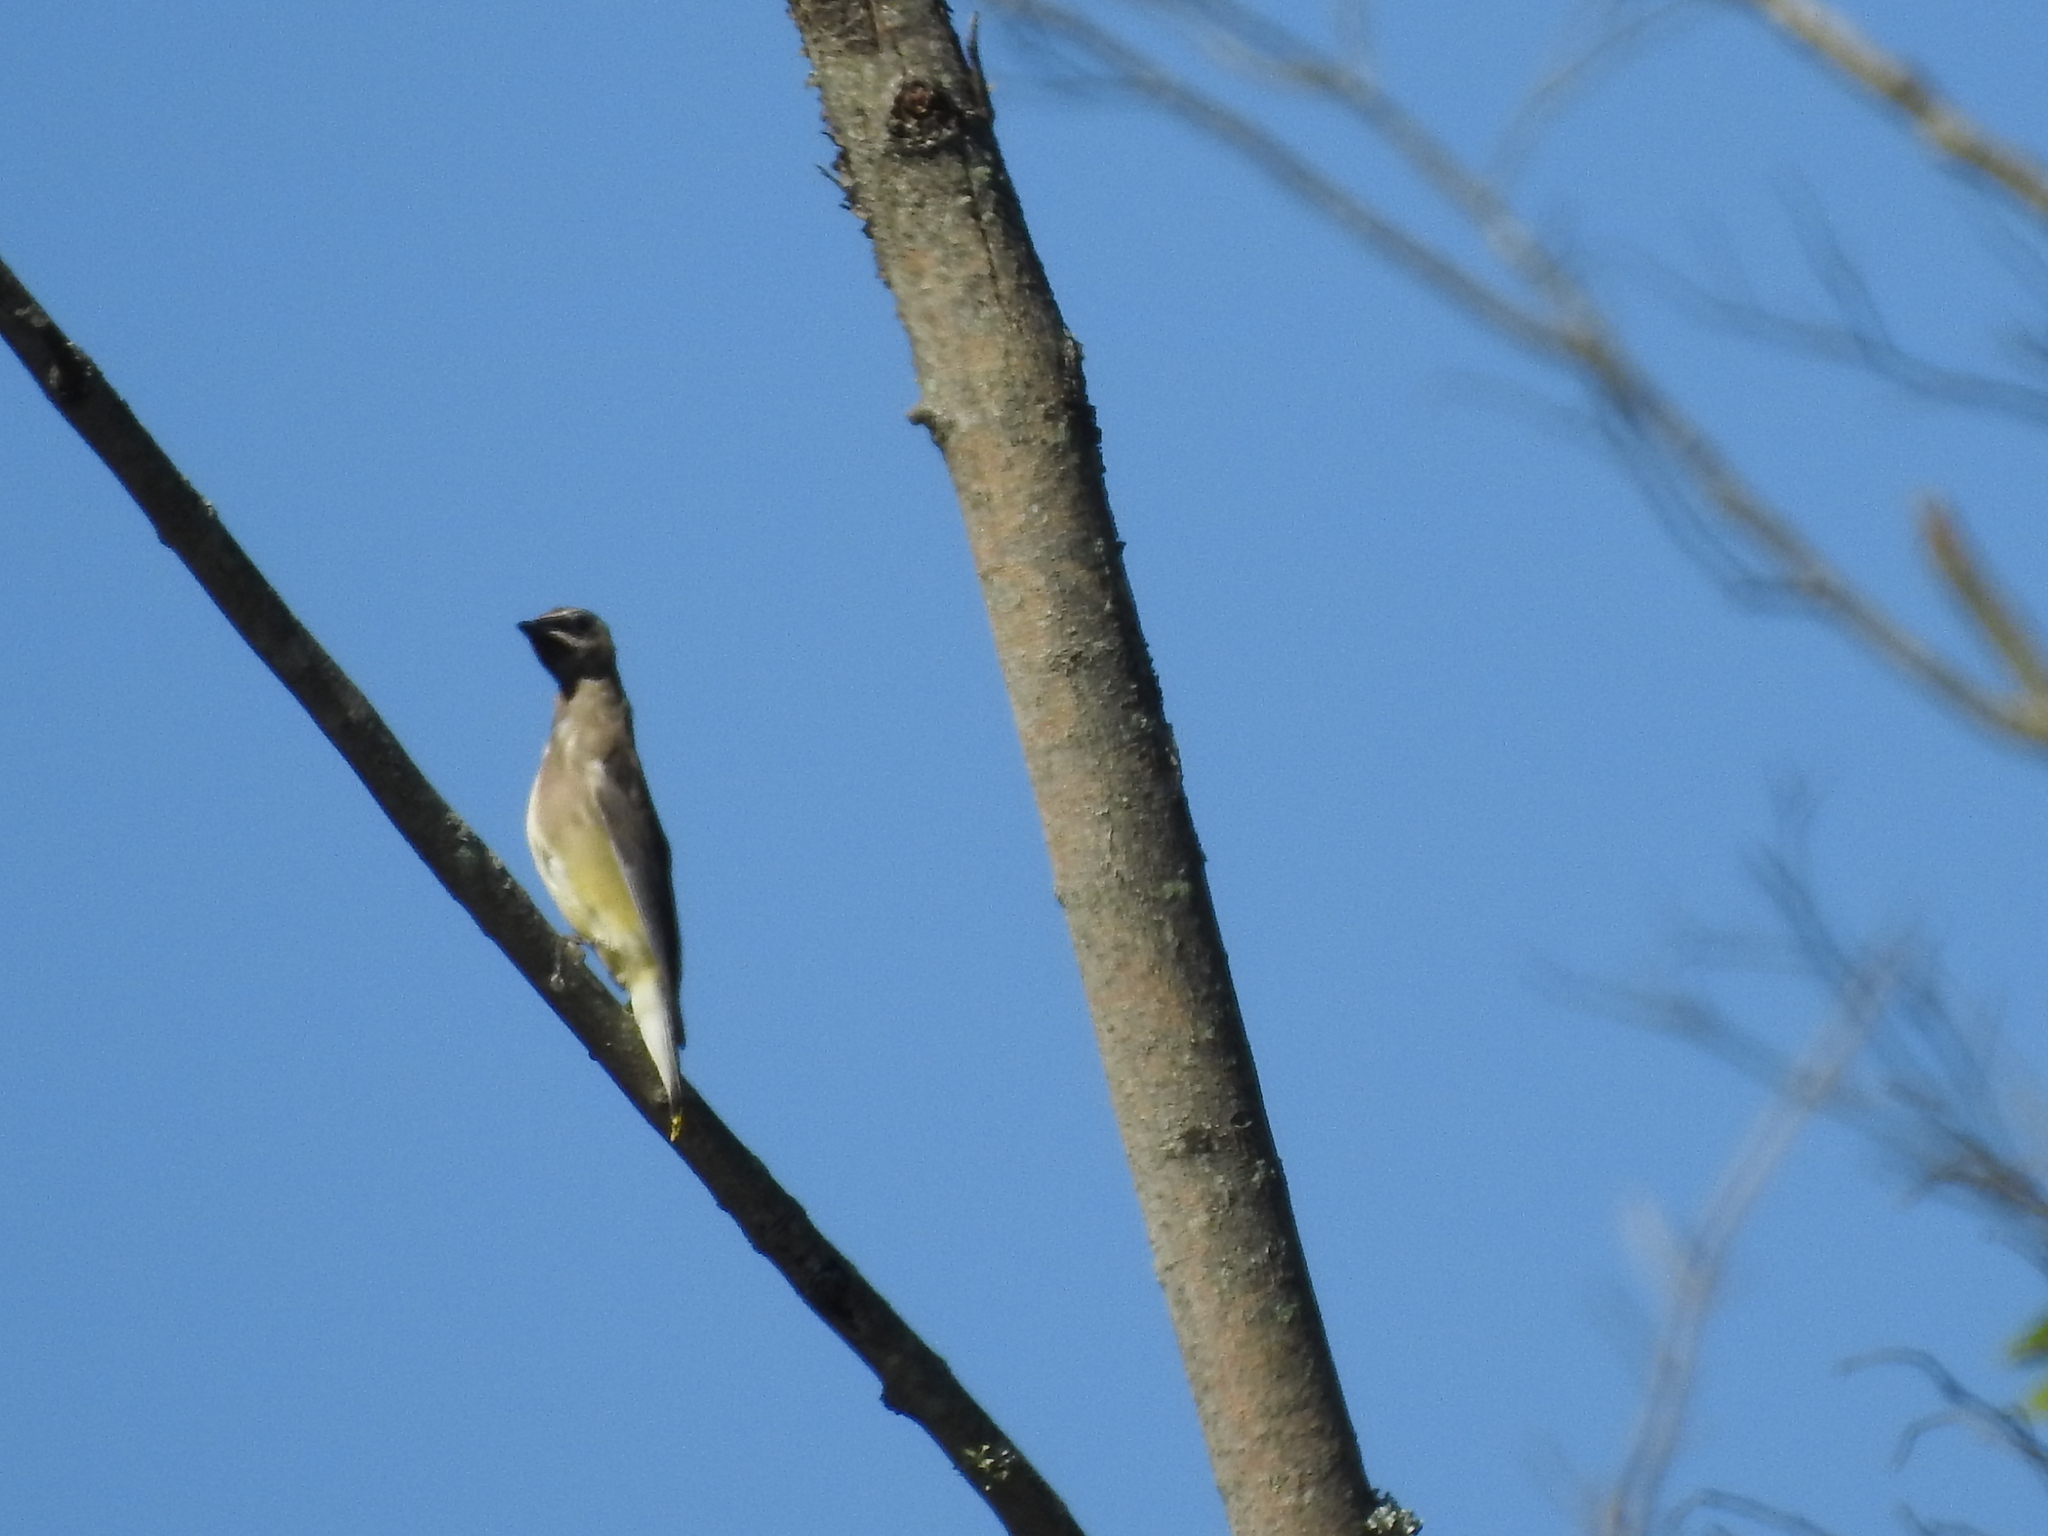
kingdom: Animalia
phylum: Chordata
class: Aves
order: Passeriformes
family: Bombycillidae
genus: Bombycilla
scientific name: Bombycilla cedrorum
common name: Cedar waxwing
